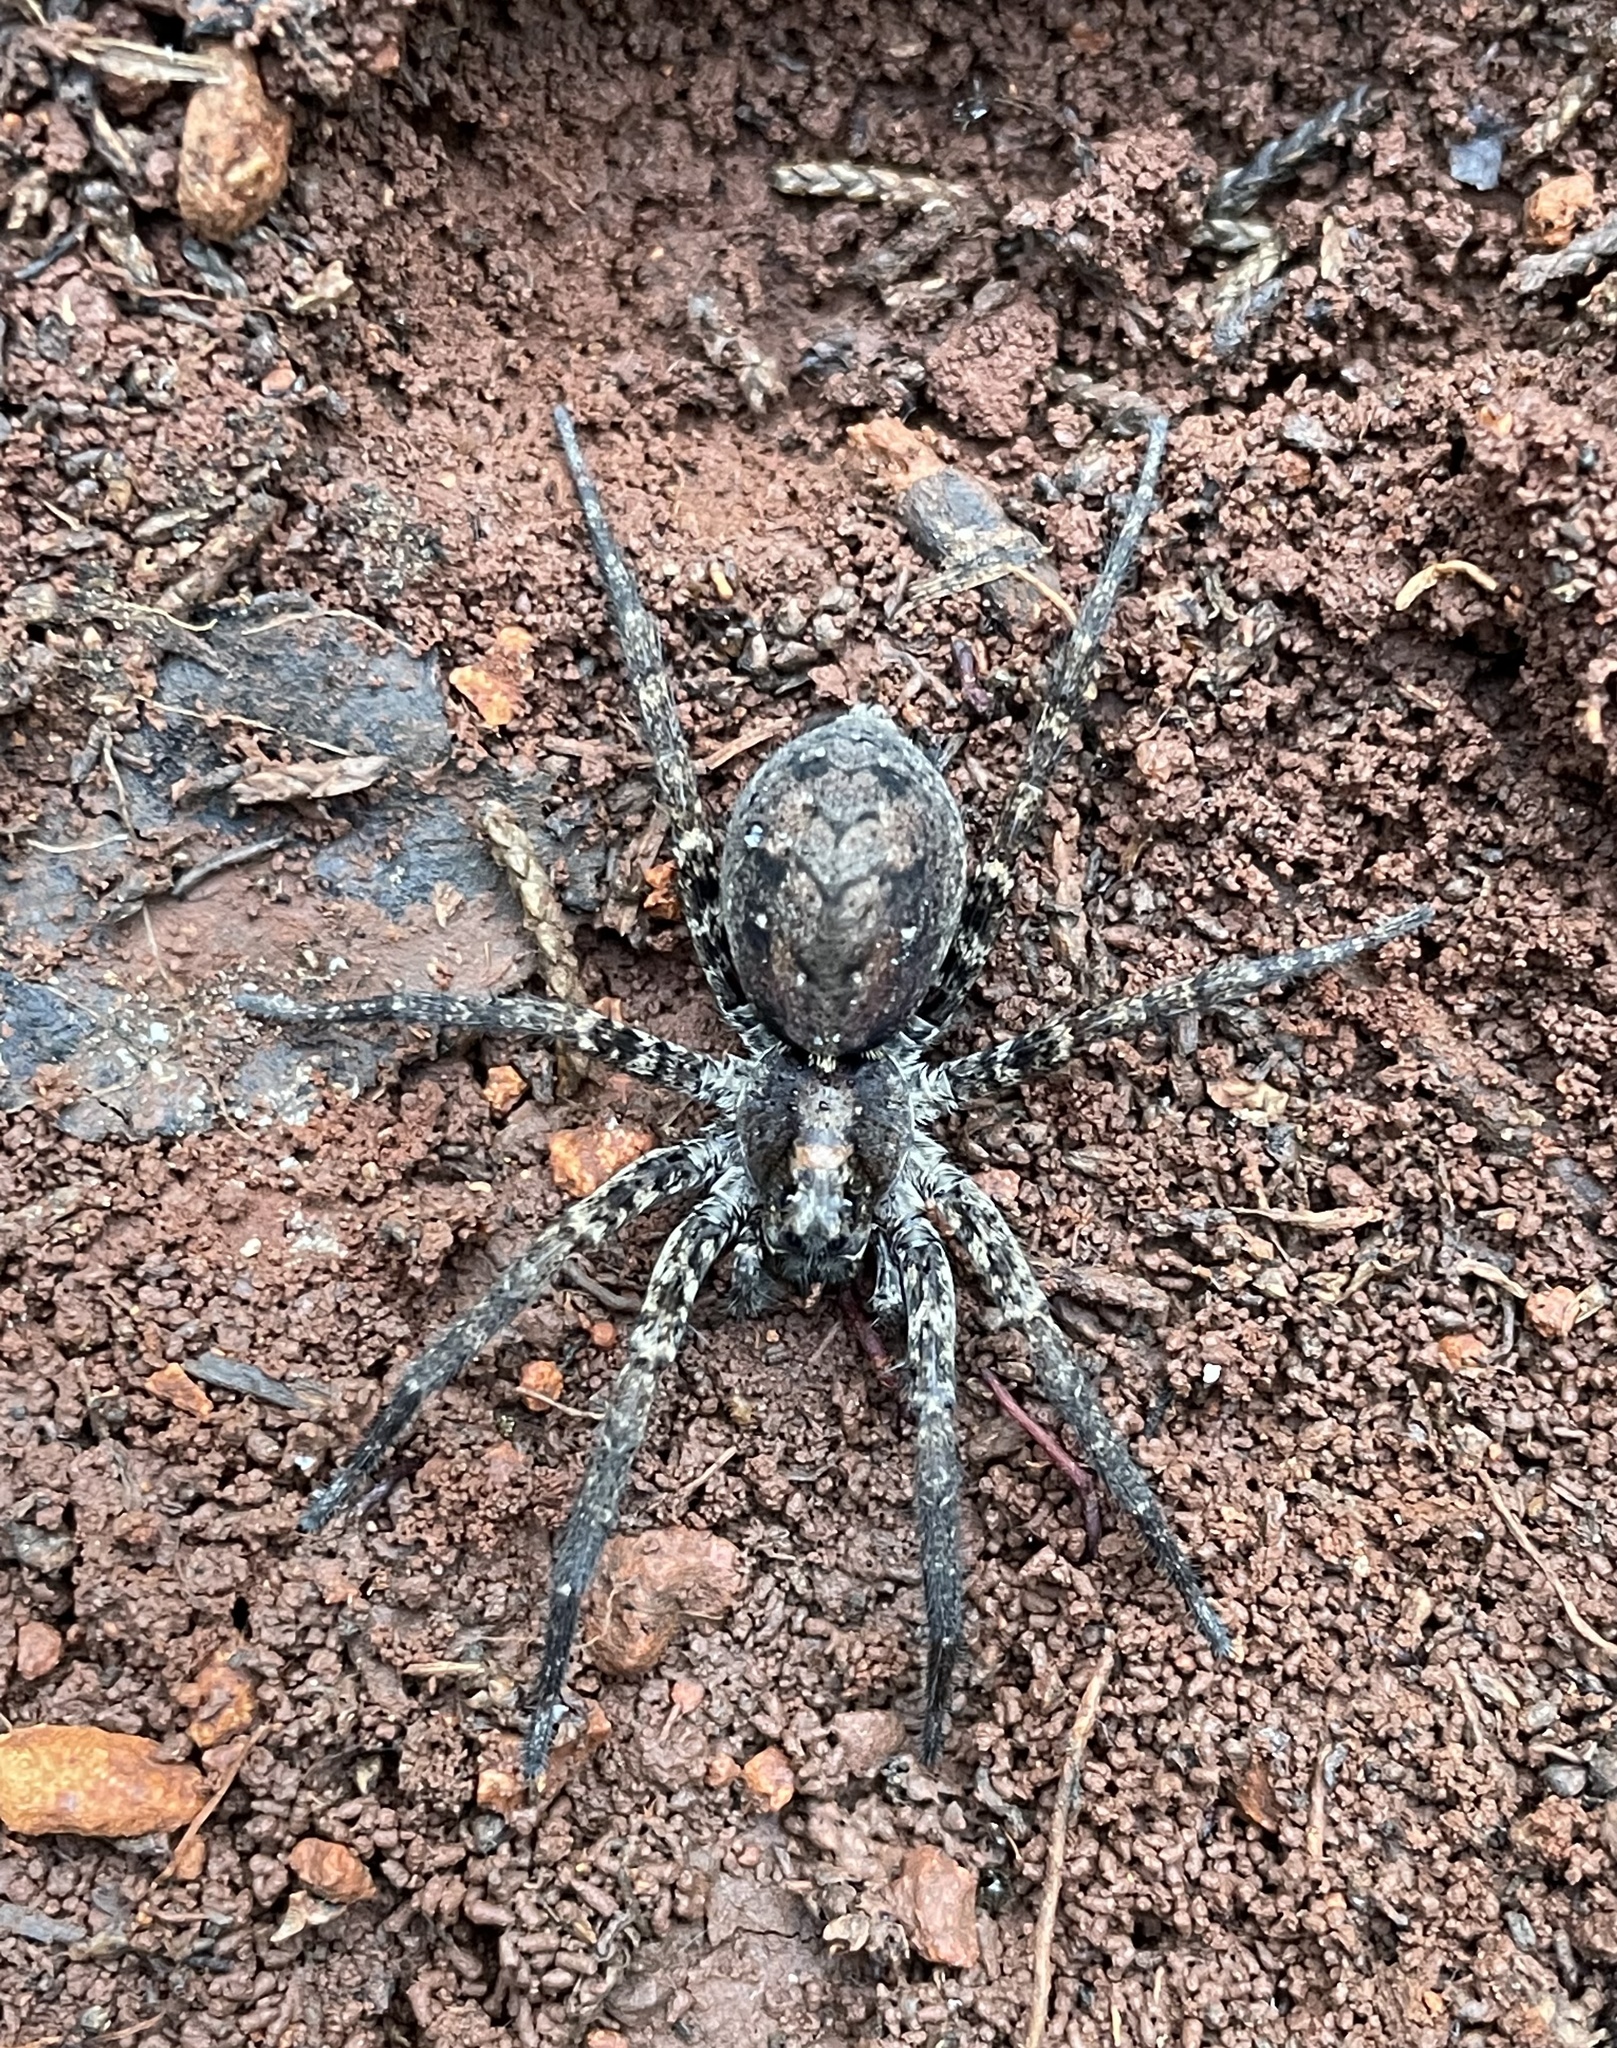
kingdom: Animalia
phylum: Arthropoda
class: Arachnida
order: Araneae
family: Lycosidae
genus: Gladicosa
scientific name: Gladicosa pulchra
